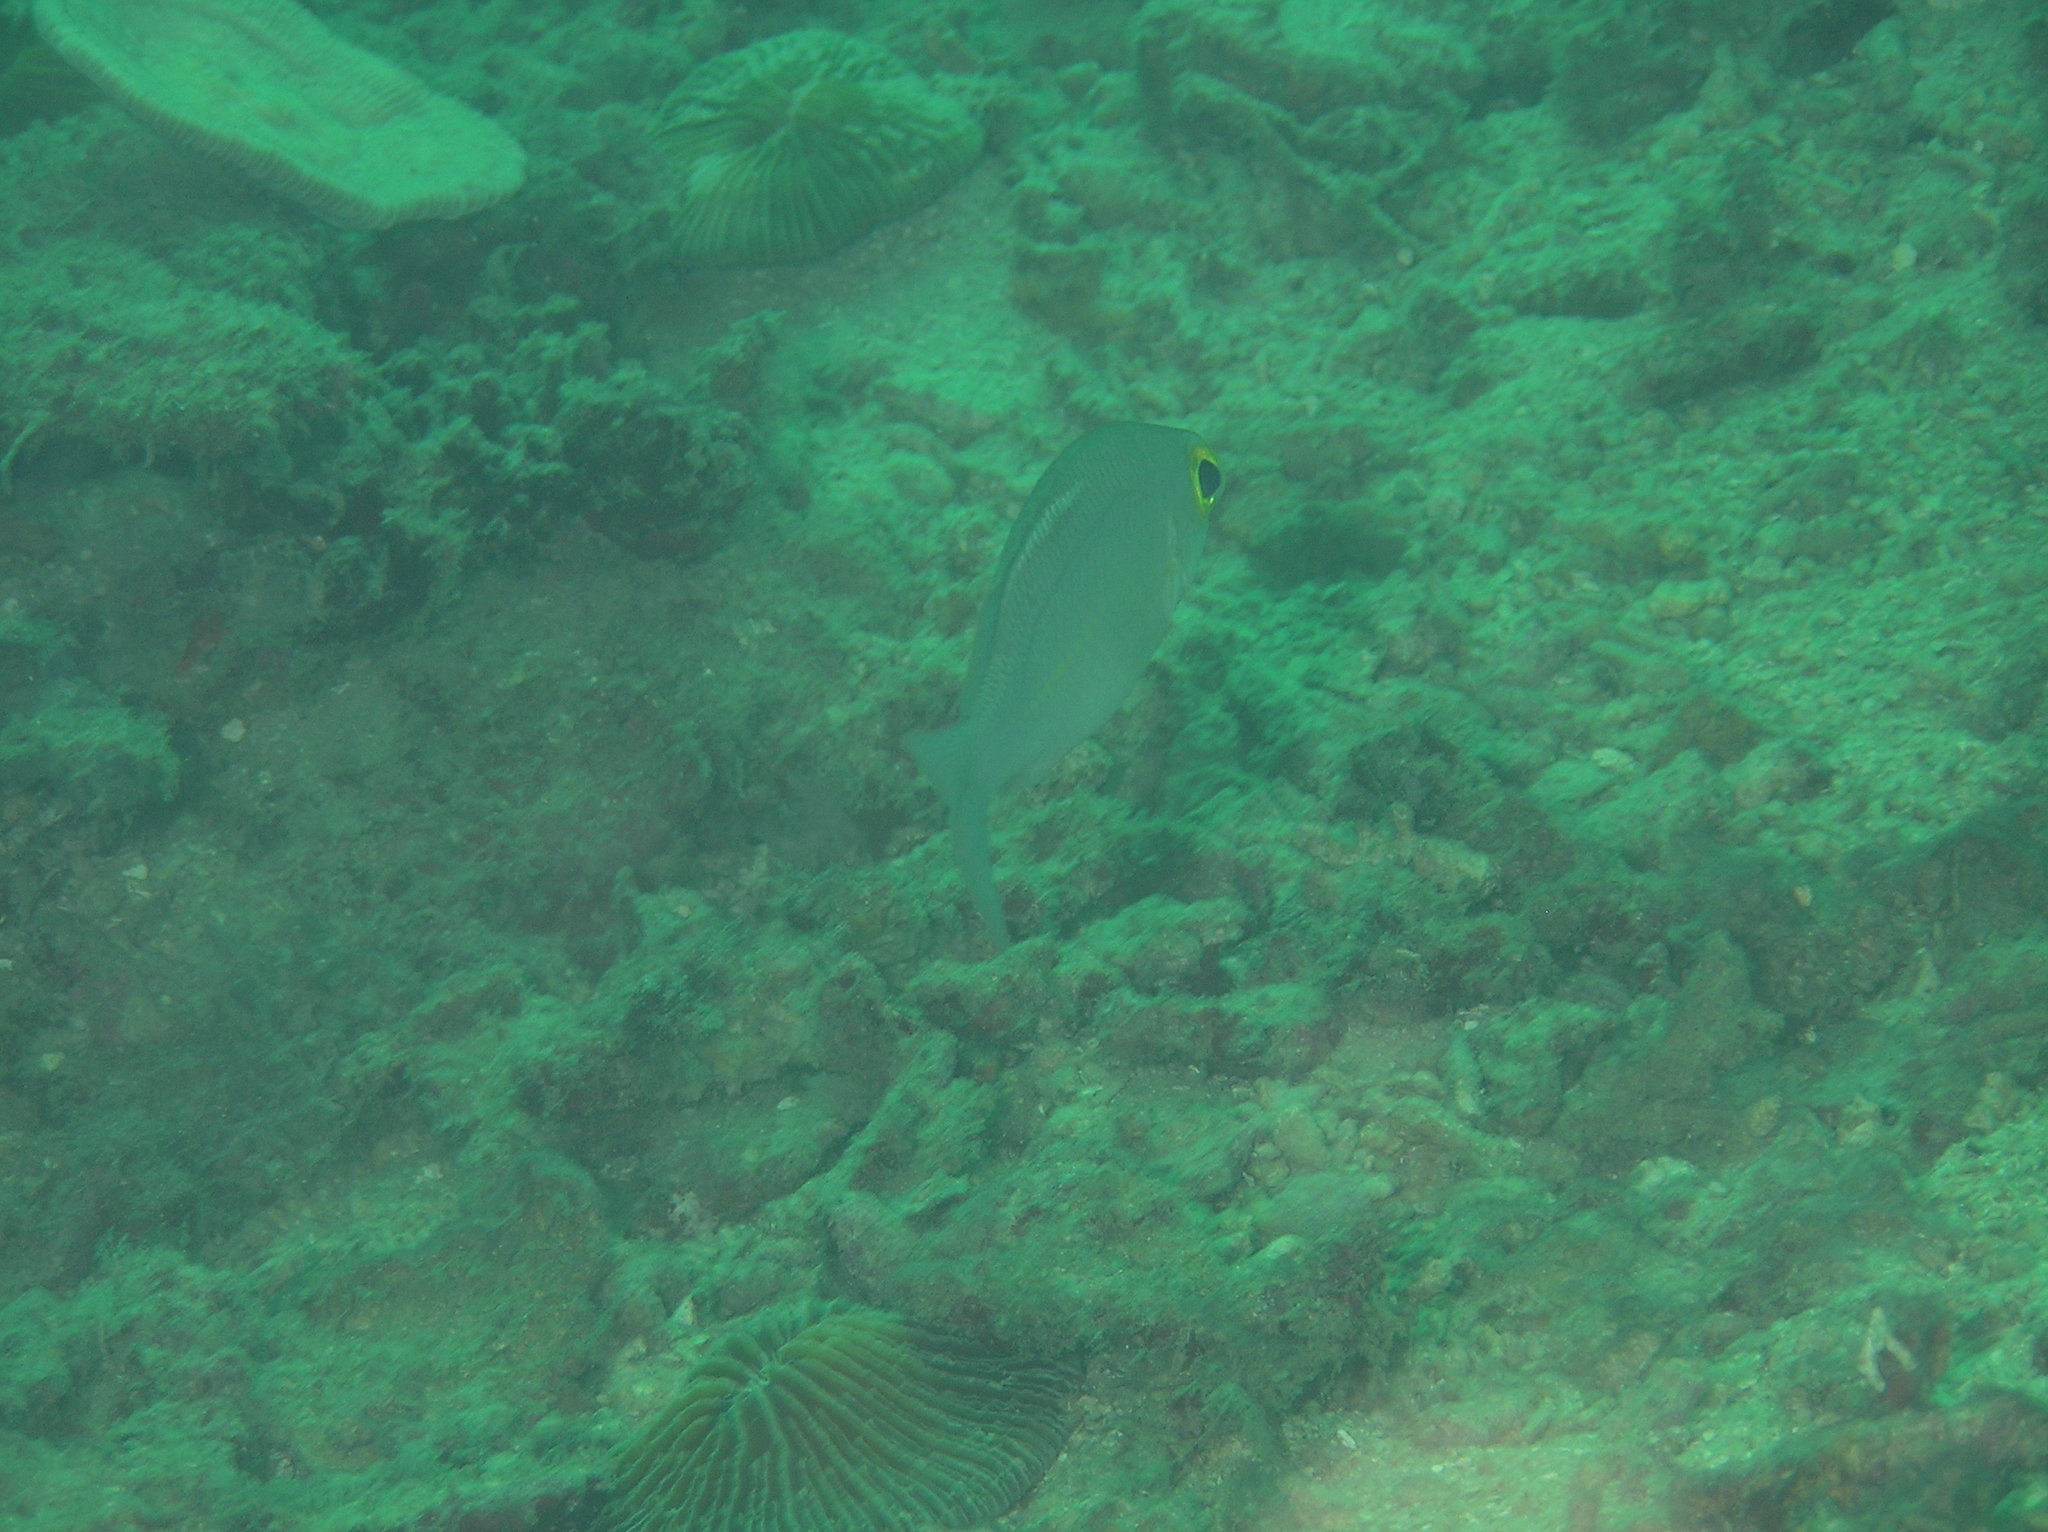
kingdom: Animalia
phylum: Chordata
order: Perciformes
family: Nemipteridae
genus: Scolopsis
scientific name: Scolopsis ciliata
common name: Ciliate spinecheek
